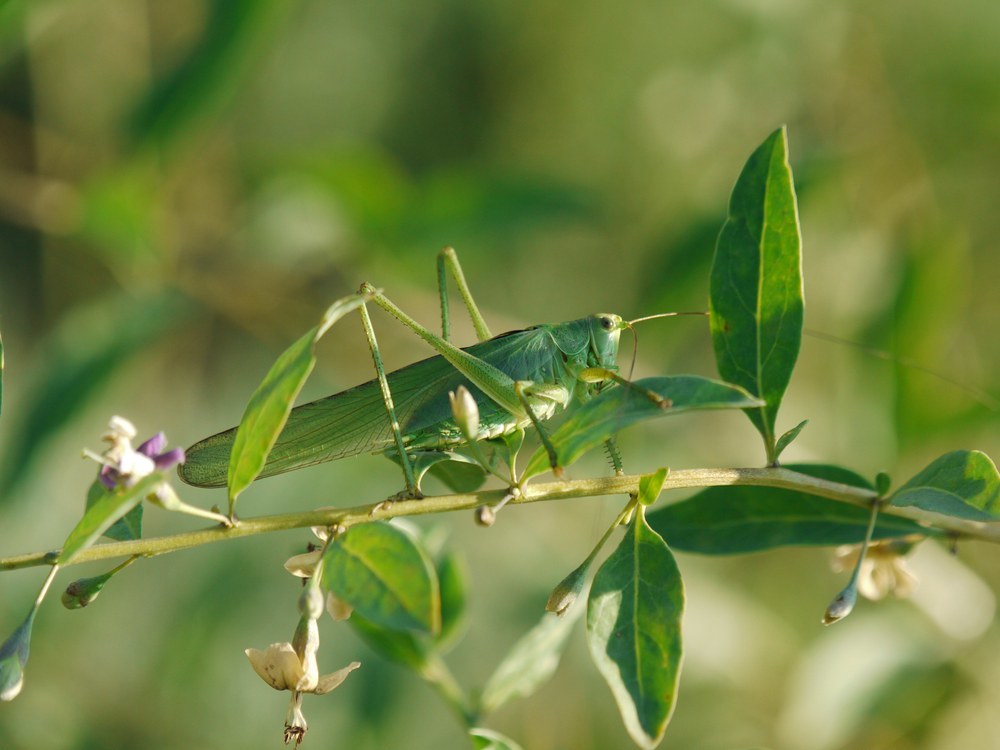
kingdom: Animalia
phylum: Arthropoda
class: Insecta
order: Orthoptera
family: Tettigoniidae
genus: Tettigonia
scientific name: Tettigonia viridissima
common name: Great green bush-cricket
